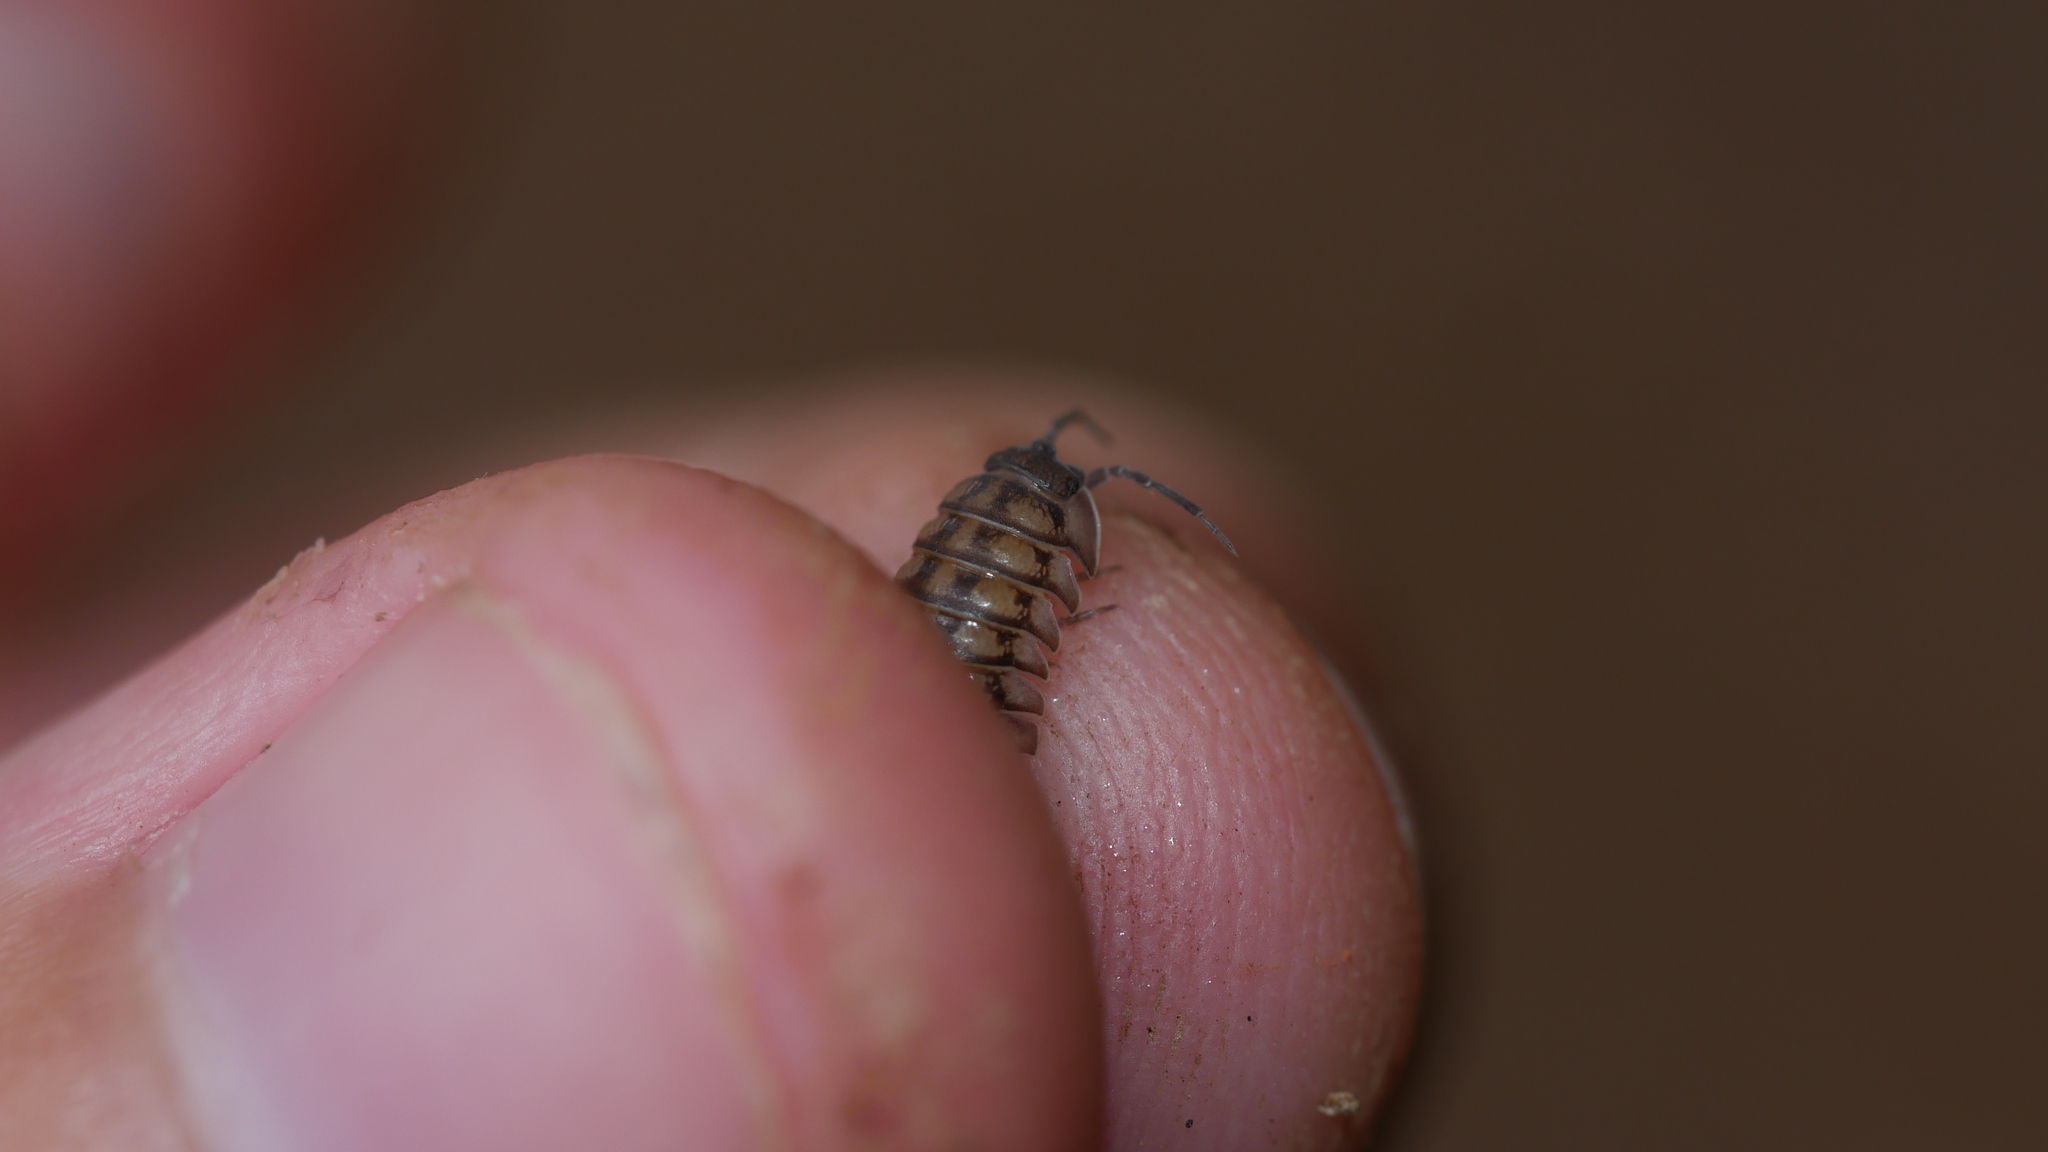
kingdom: Animalia
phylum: Arthropoda
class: Malacostraca
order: Isopoda
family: Armadillidiidae
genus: Armadillidium
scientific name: Armadillidium nasatum
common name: Isopod
